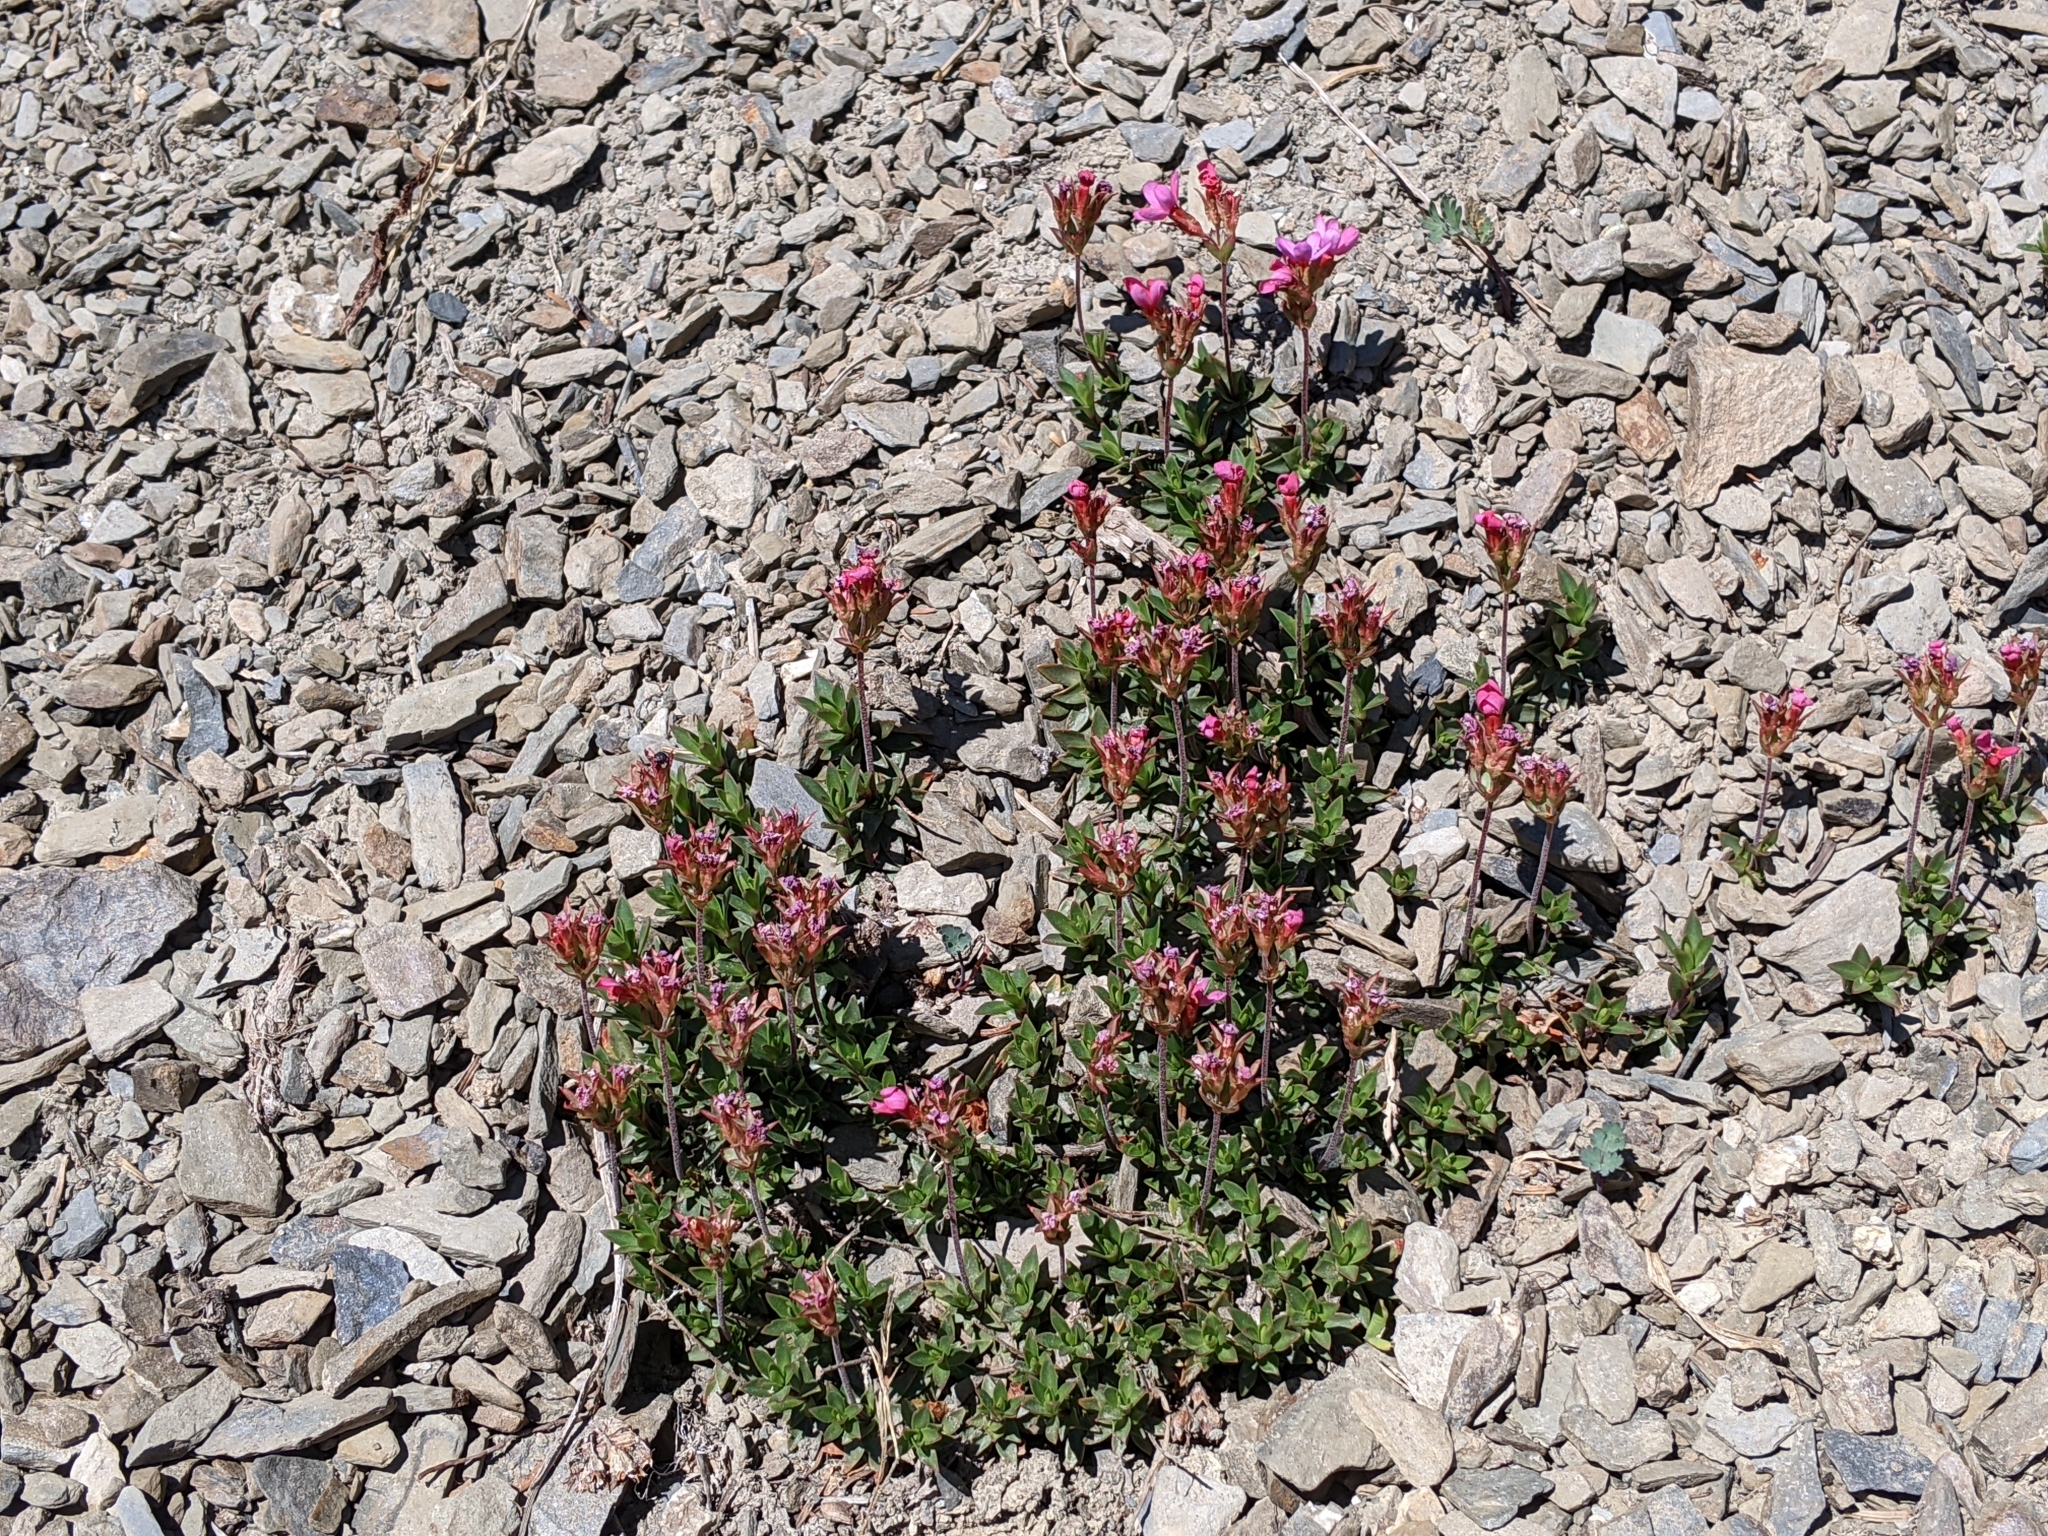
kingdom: Plantae
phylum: Tracheophyta
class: Magnoliopsida
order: Ericales
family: Primulaceae
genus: Androsace
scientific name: Androsace laevigata
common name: Cliff dwarf-primrose
